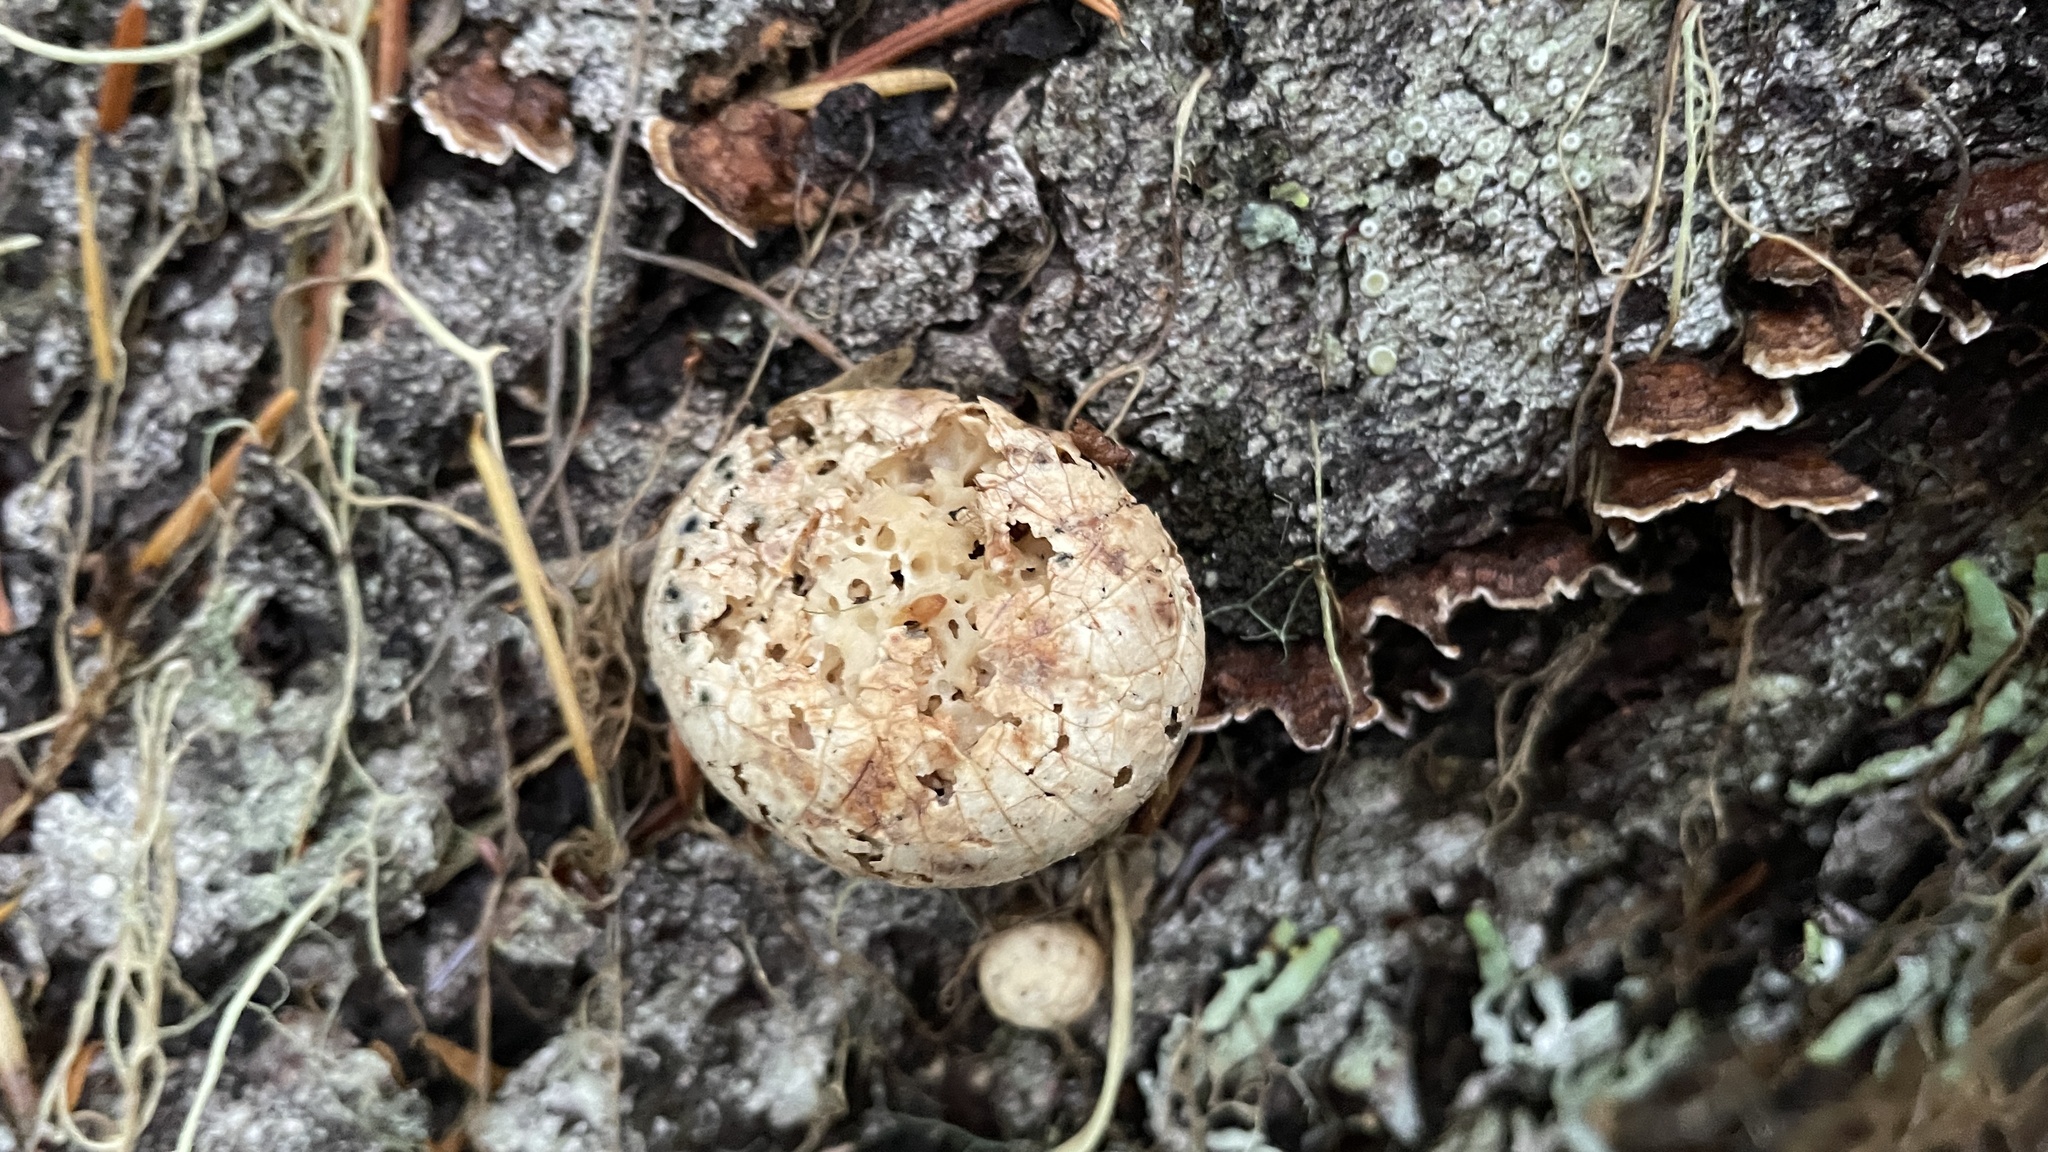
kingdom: Fungi
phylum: Basidiomycota
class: Agaricomycetes
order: Polyporales
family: Polyporaceae
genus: Cryptoporus
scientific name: Cryptoporus volvatus
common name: Veiled polypore
